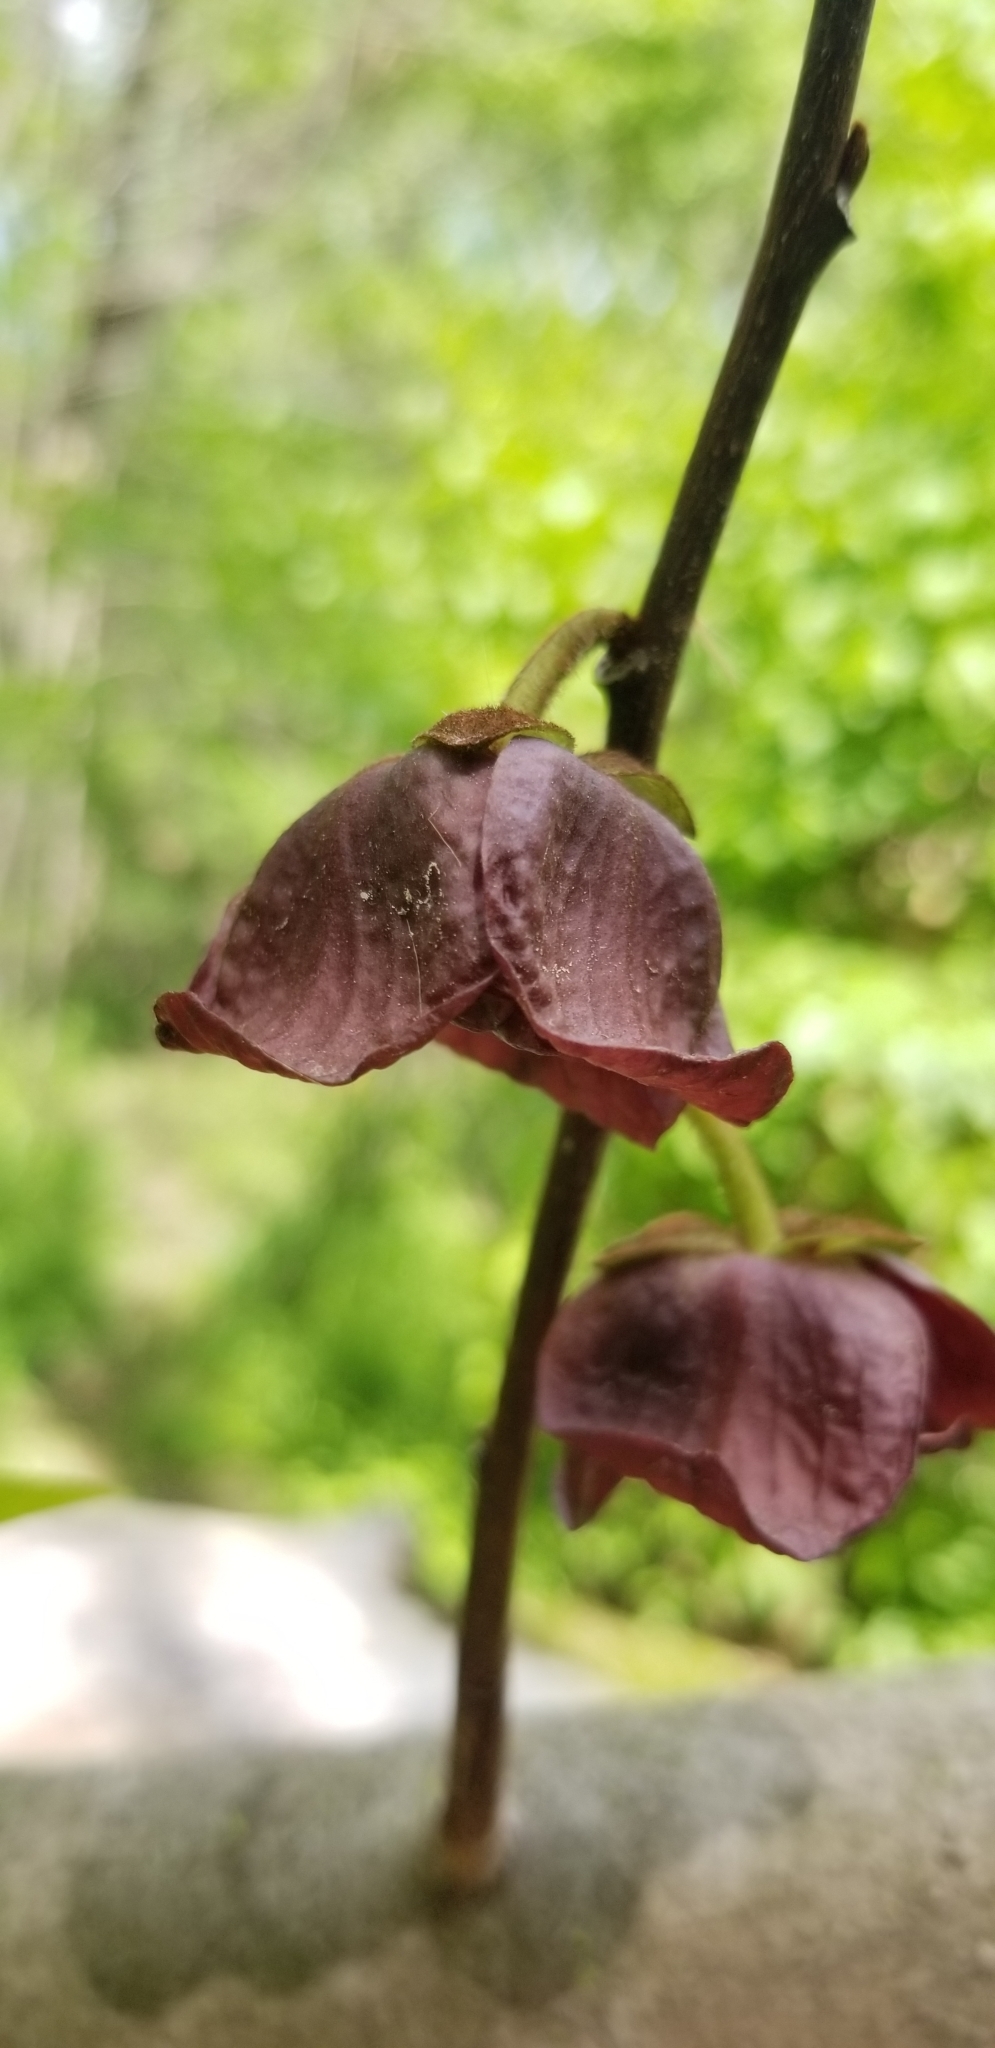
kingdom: Plantae
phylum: Tracheophyta
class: Magnoliopsida
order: Magnoliales
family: Annonaceae
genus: Asimina
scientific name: Asimina triloba
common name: Dog-banana
